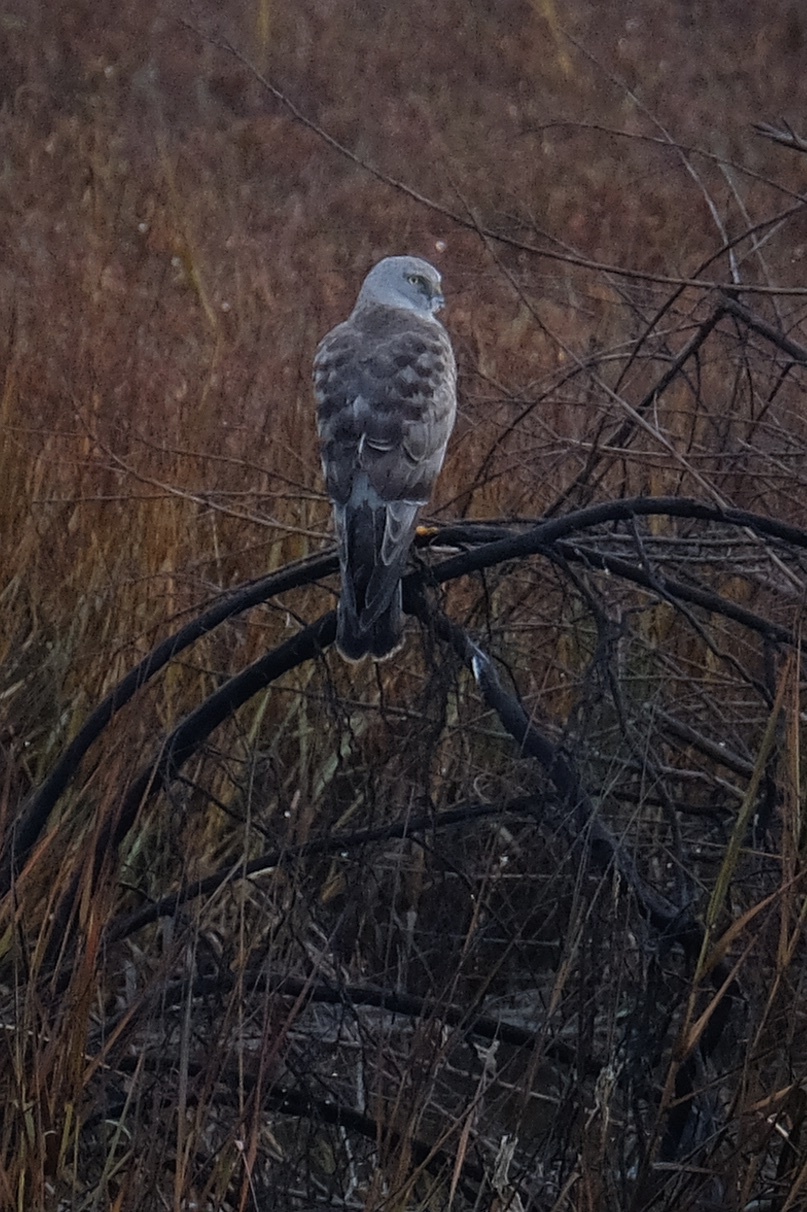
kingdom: Animalia
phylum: Chordata
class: Aves
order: Accipitriformes
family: Accipitridae
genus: Circus
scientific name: Circus cyaneus
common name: Hen harrier
